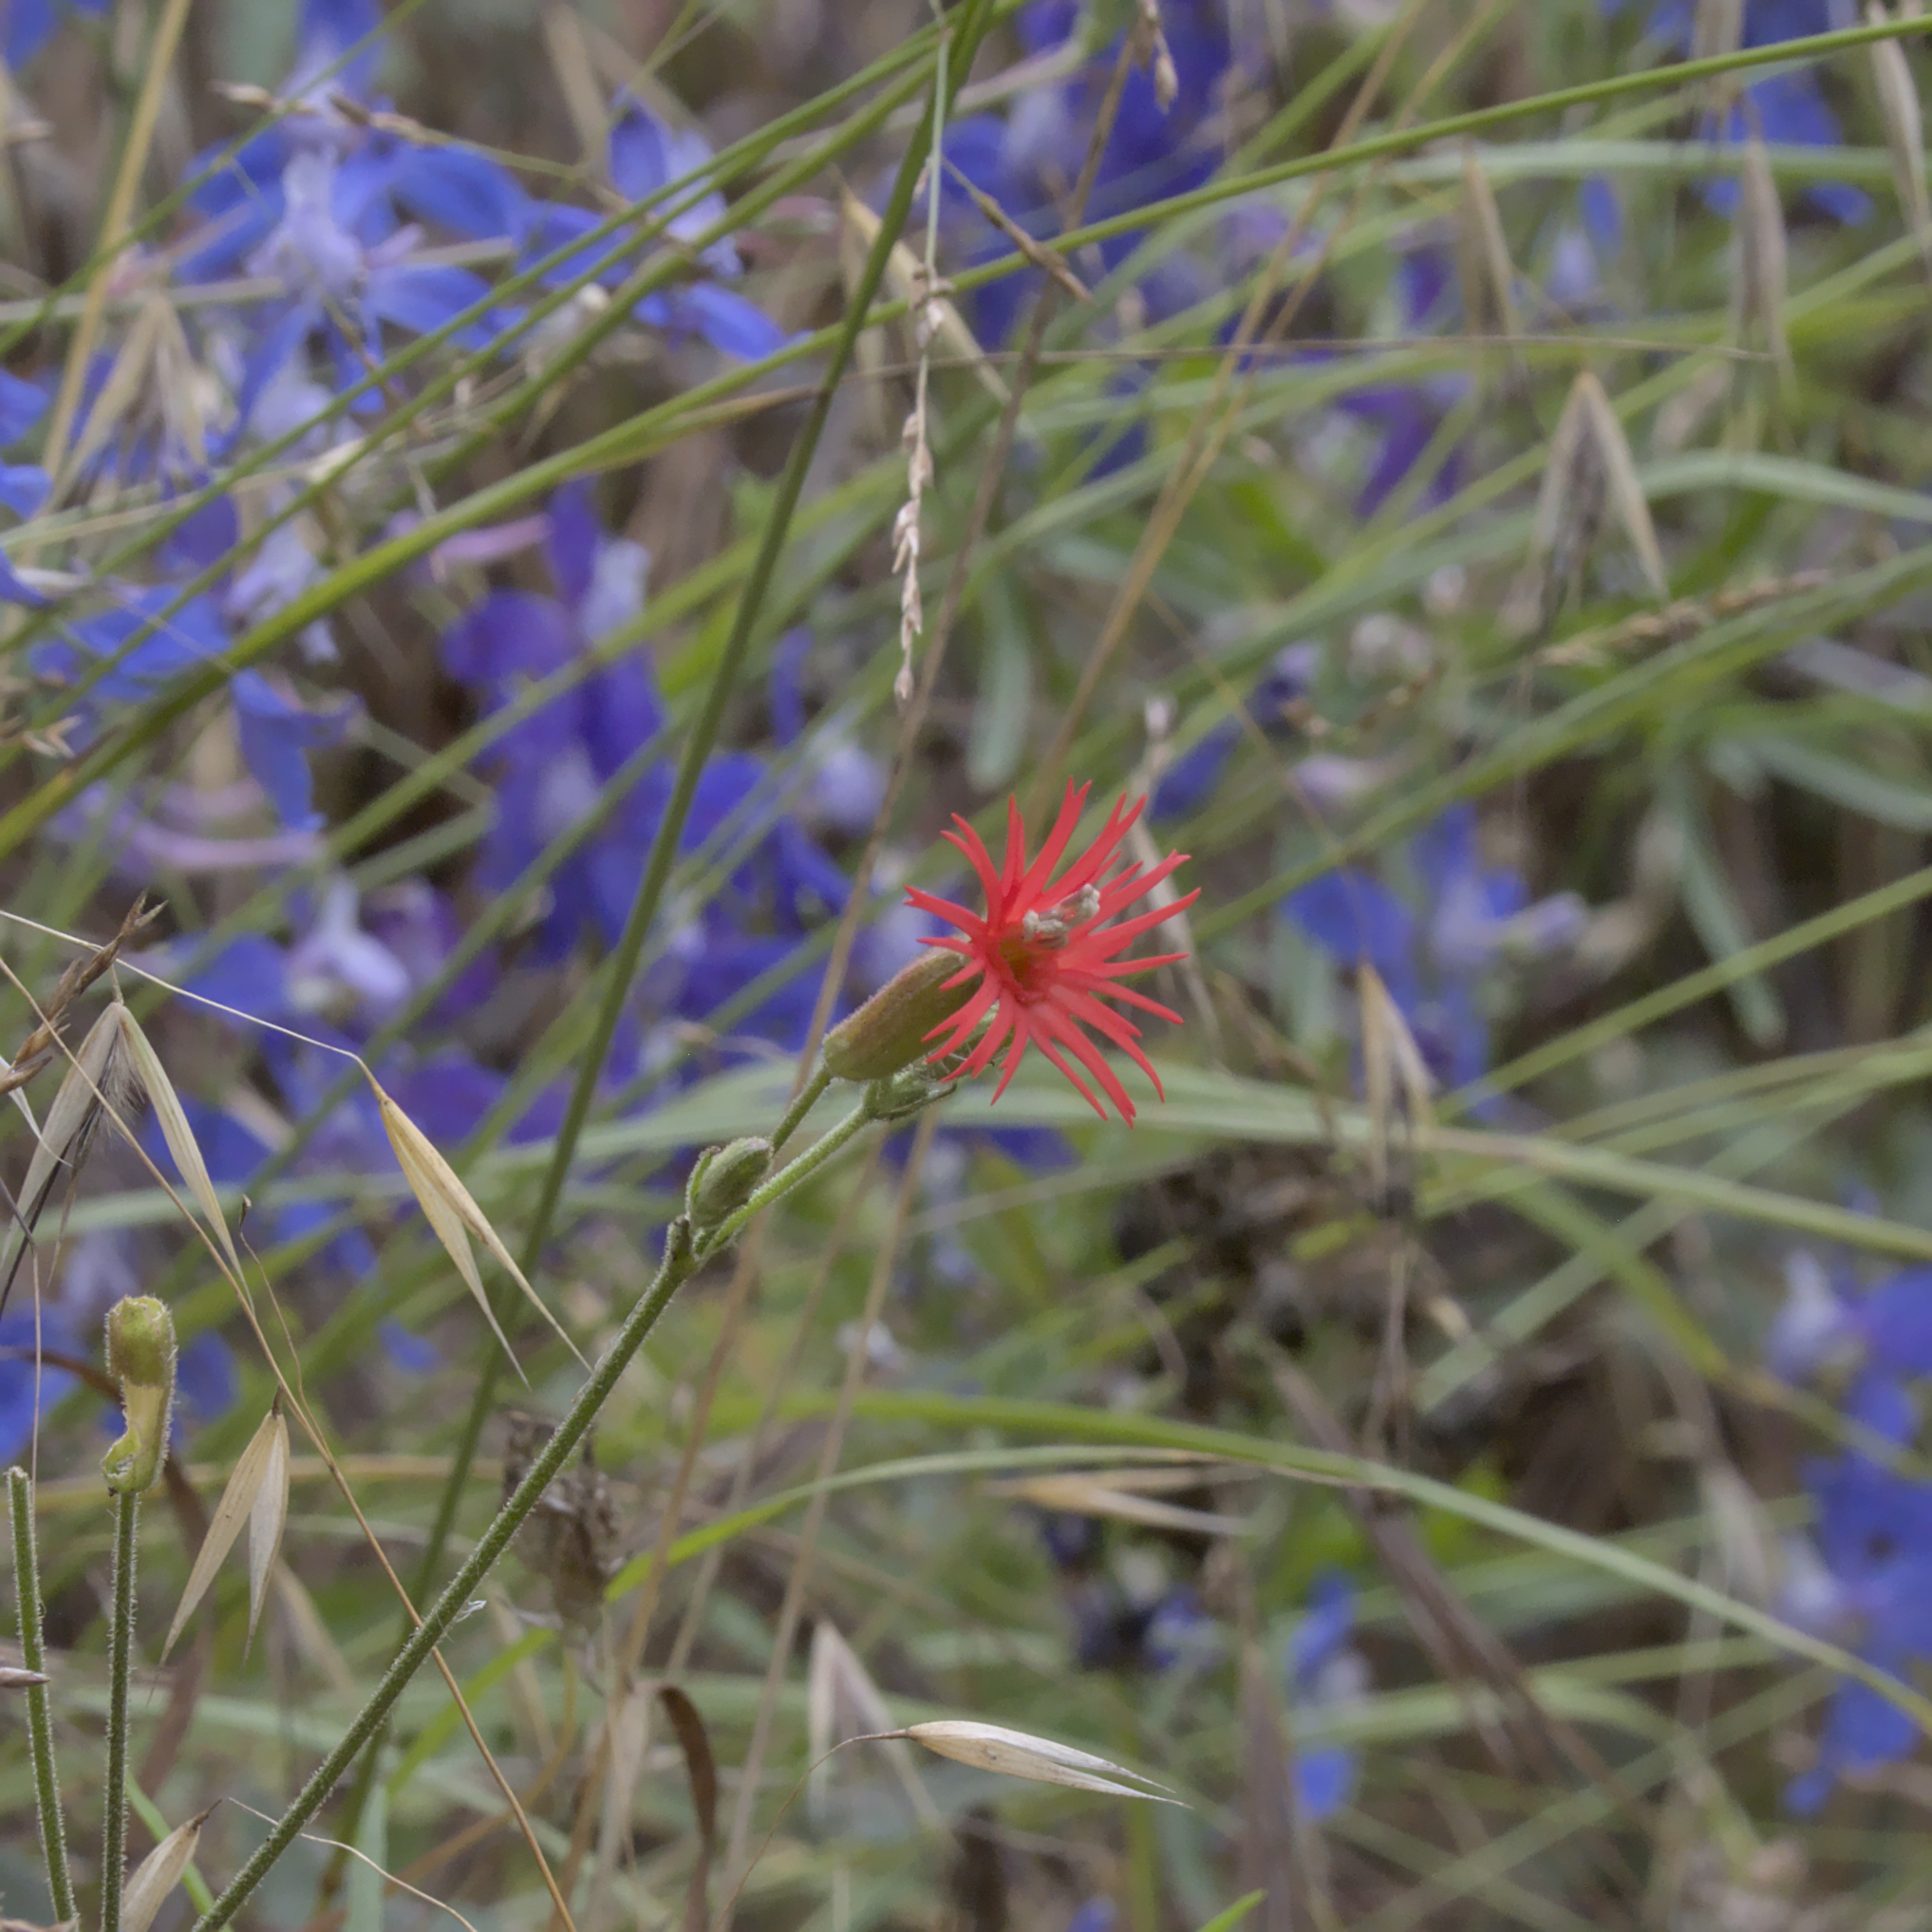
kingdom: Plantae
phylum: Tracheophyta
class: Magnoliopsida
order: Caryophyllales
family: Caryophyllaceae
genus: Silene
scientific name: Silene laciniata
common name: Indian-pink
